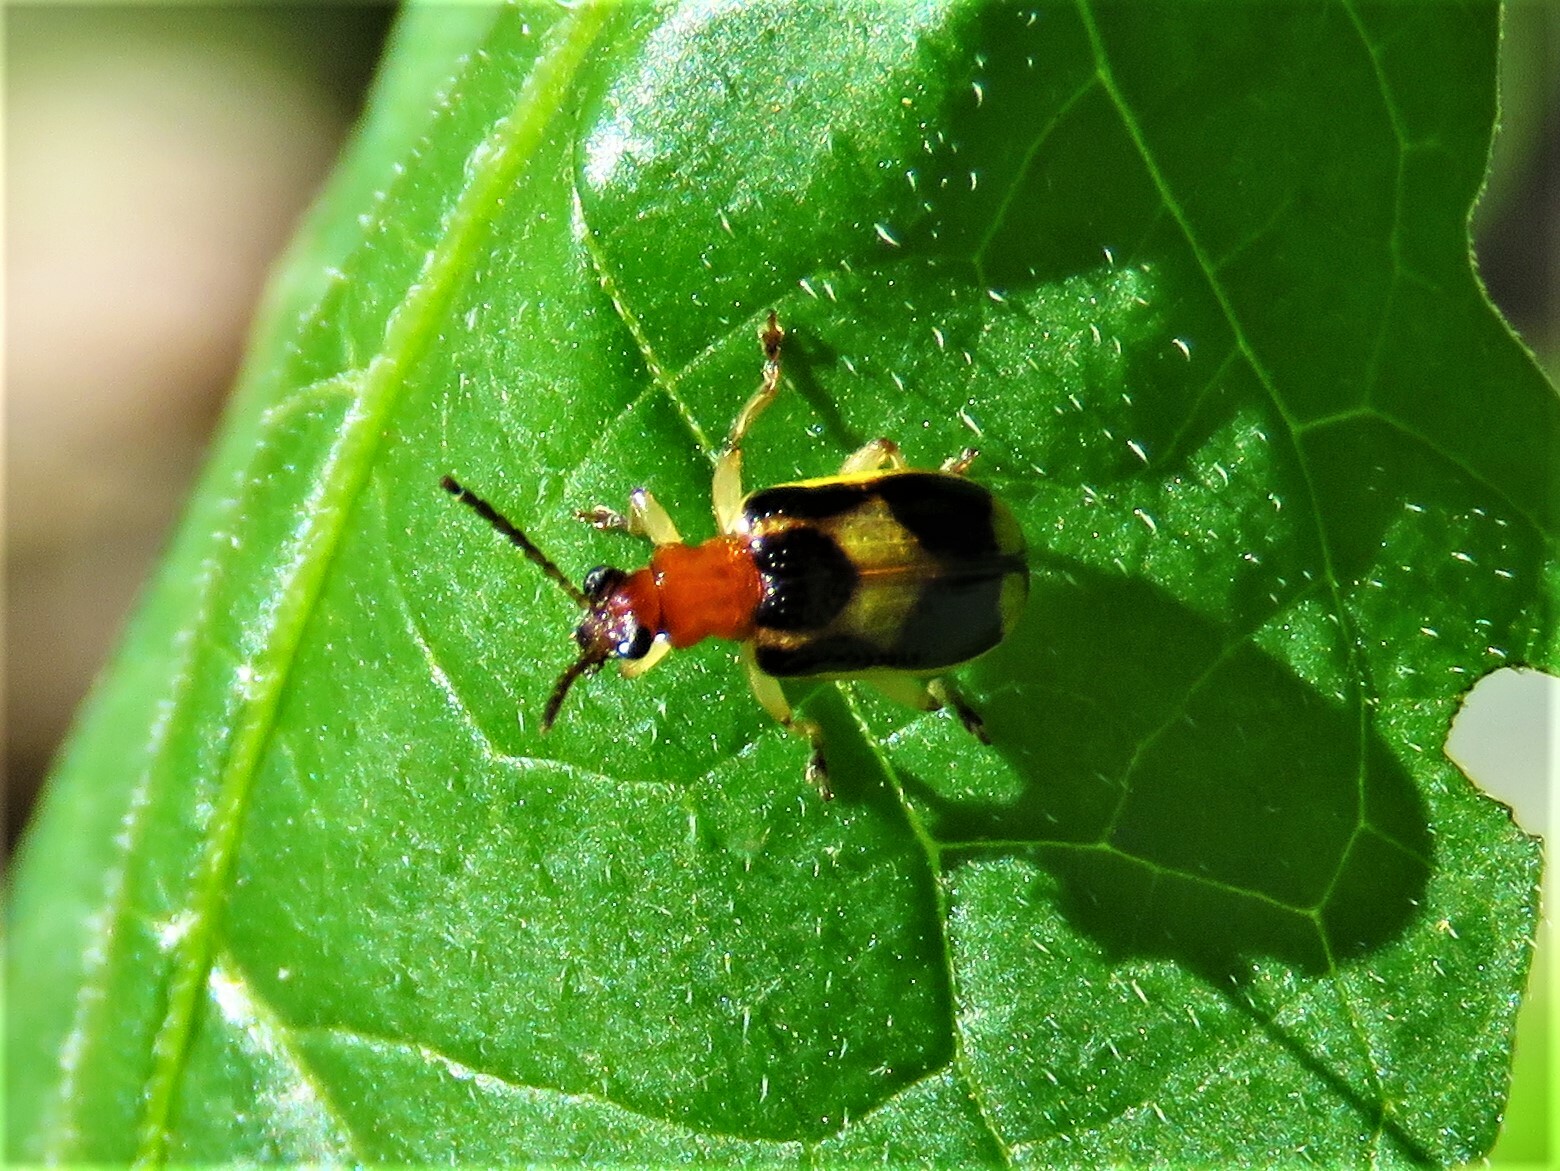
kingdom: Animalia
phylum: Arthropoda
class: Insecta
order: Coleoptera
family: Chrysomelidae
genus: Lema
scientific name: Lema opulenta
